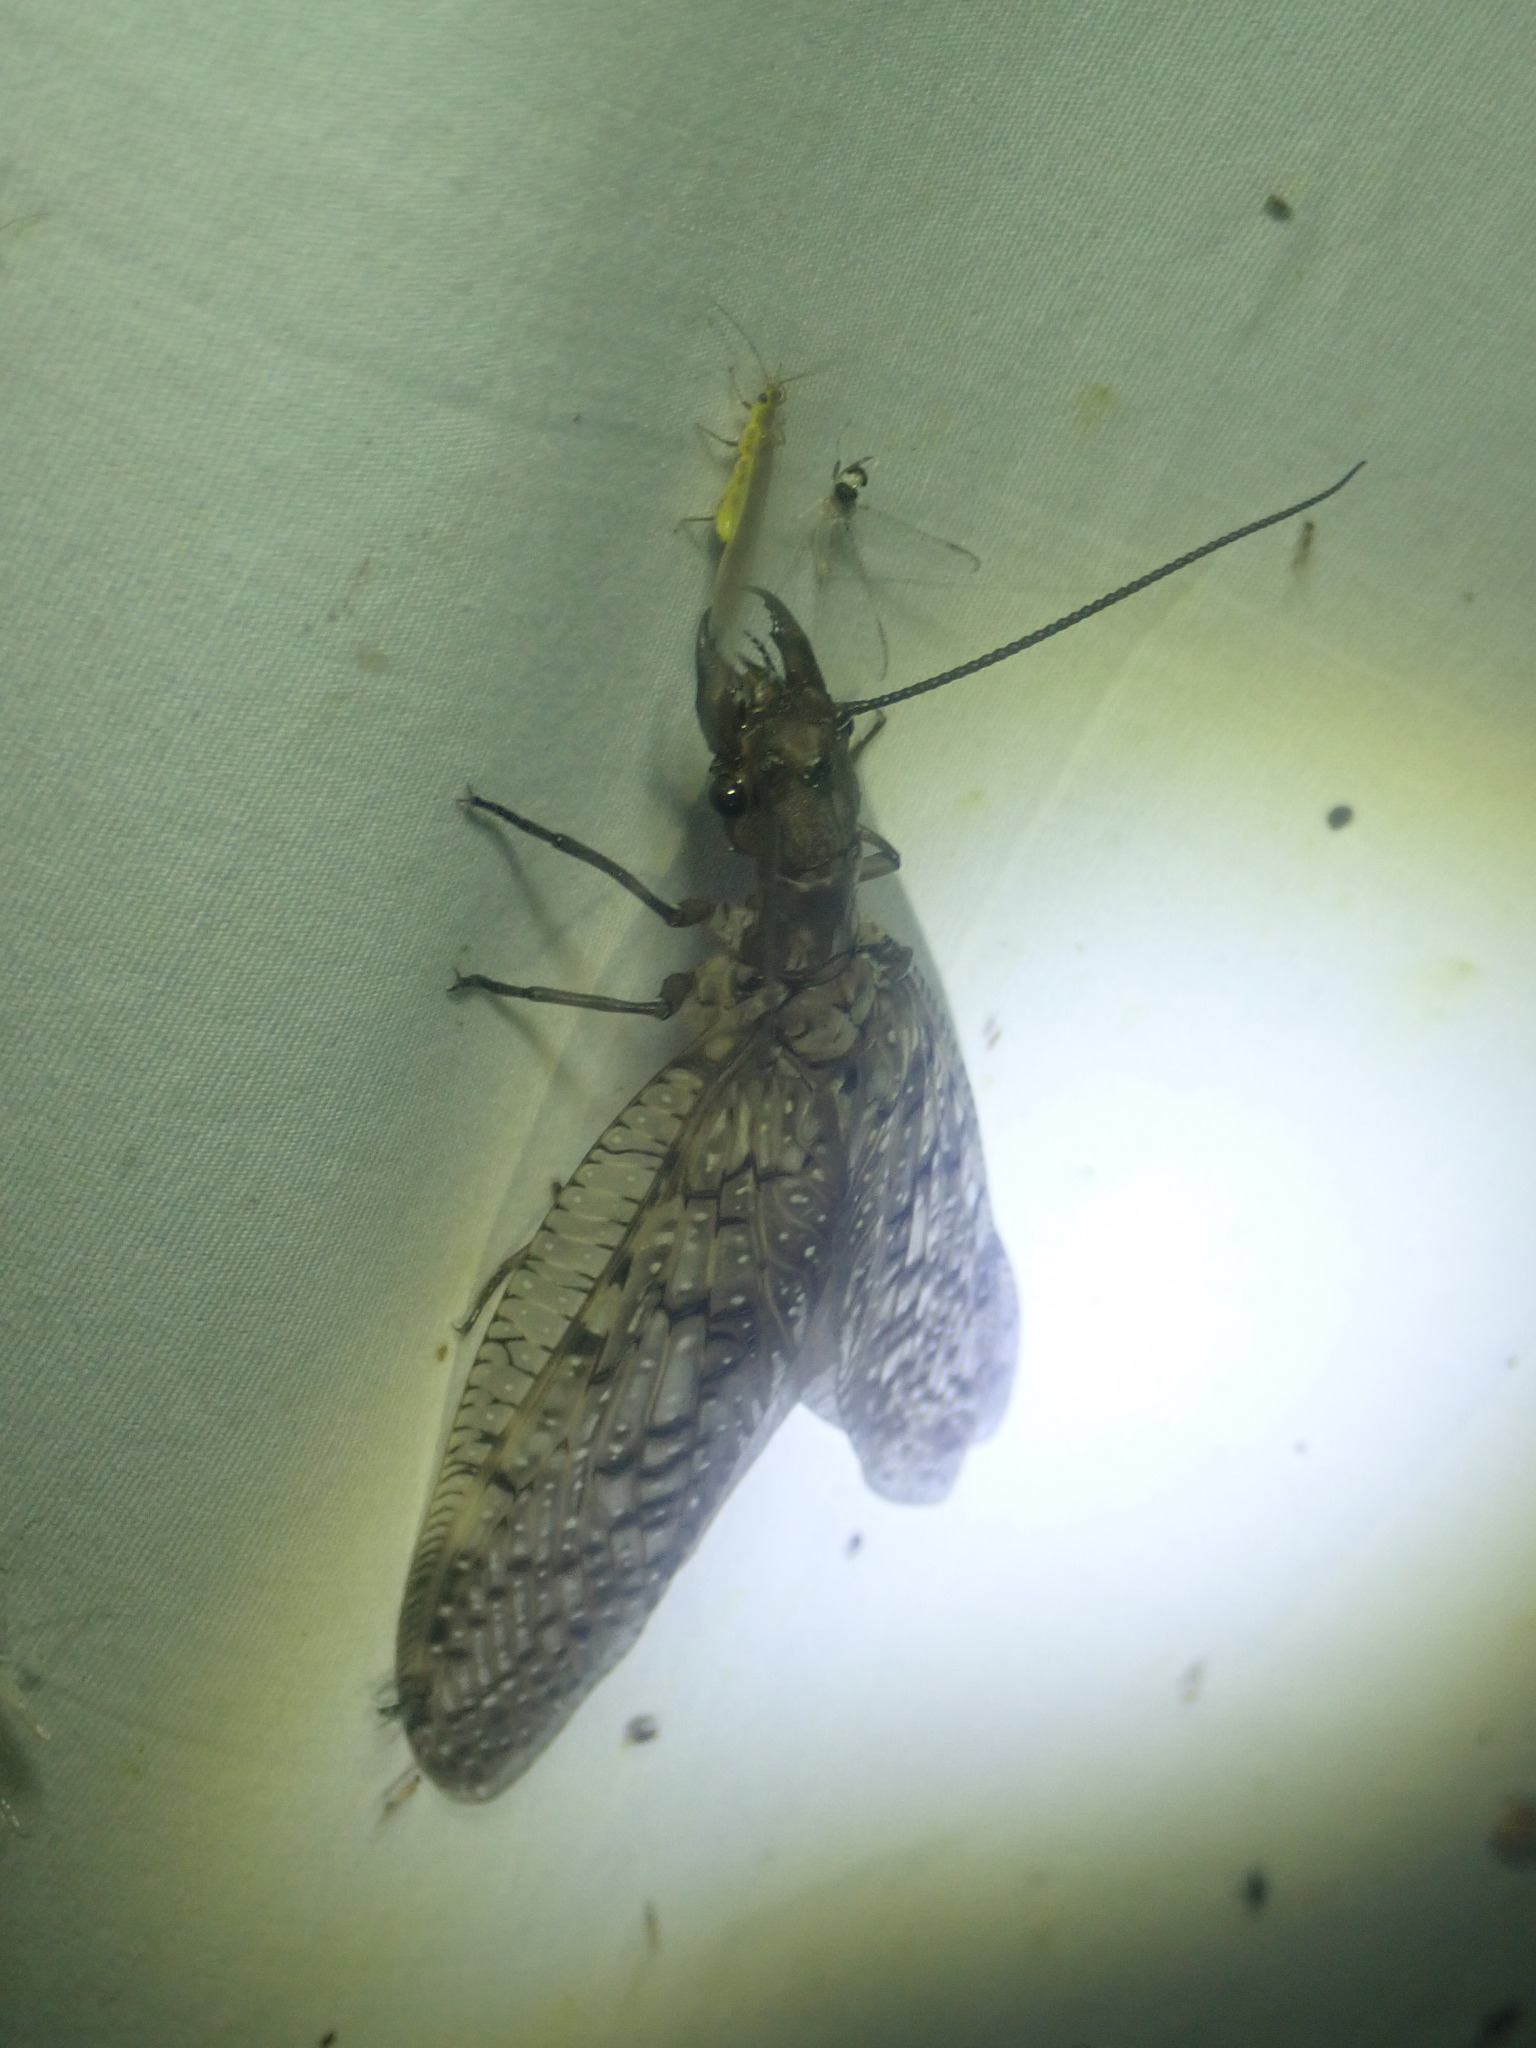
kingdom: Animalia
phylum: Arthropoda
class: Insecta
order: Megaloptera
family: Corydalidae
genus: Corydalus
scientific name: Corydalus cornutus
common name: Dobsonfly
